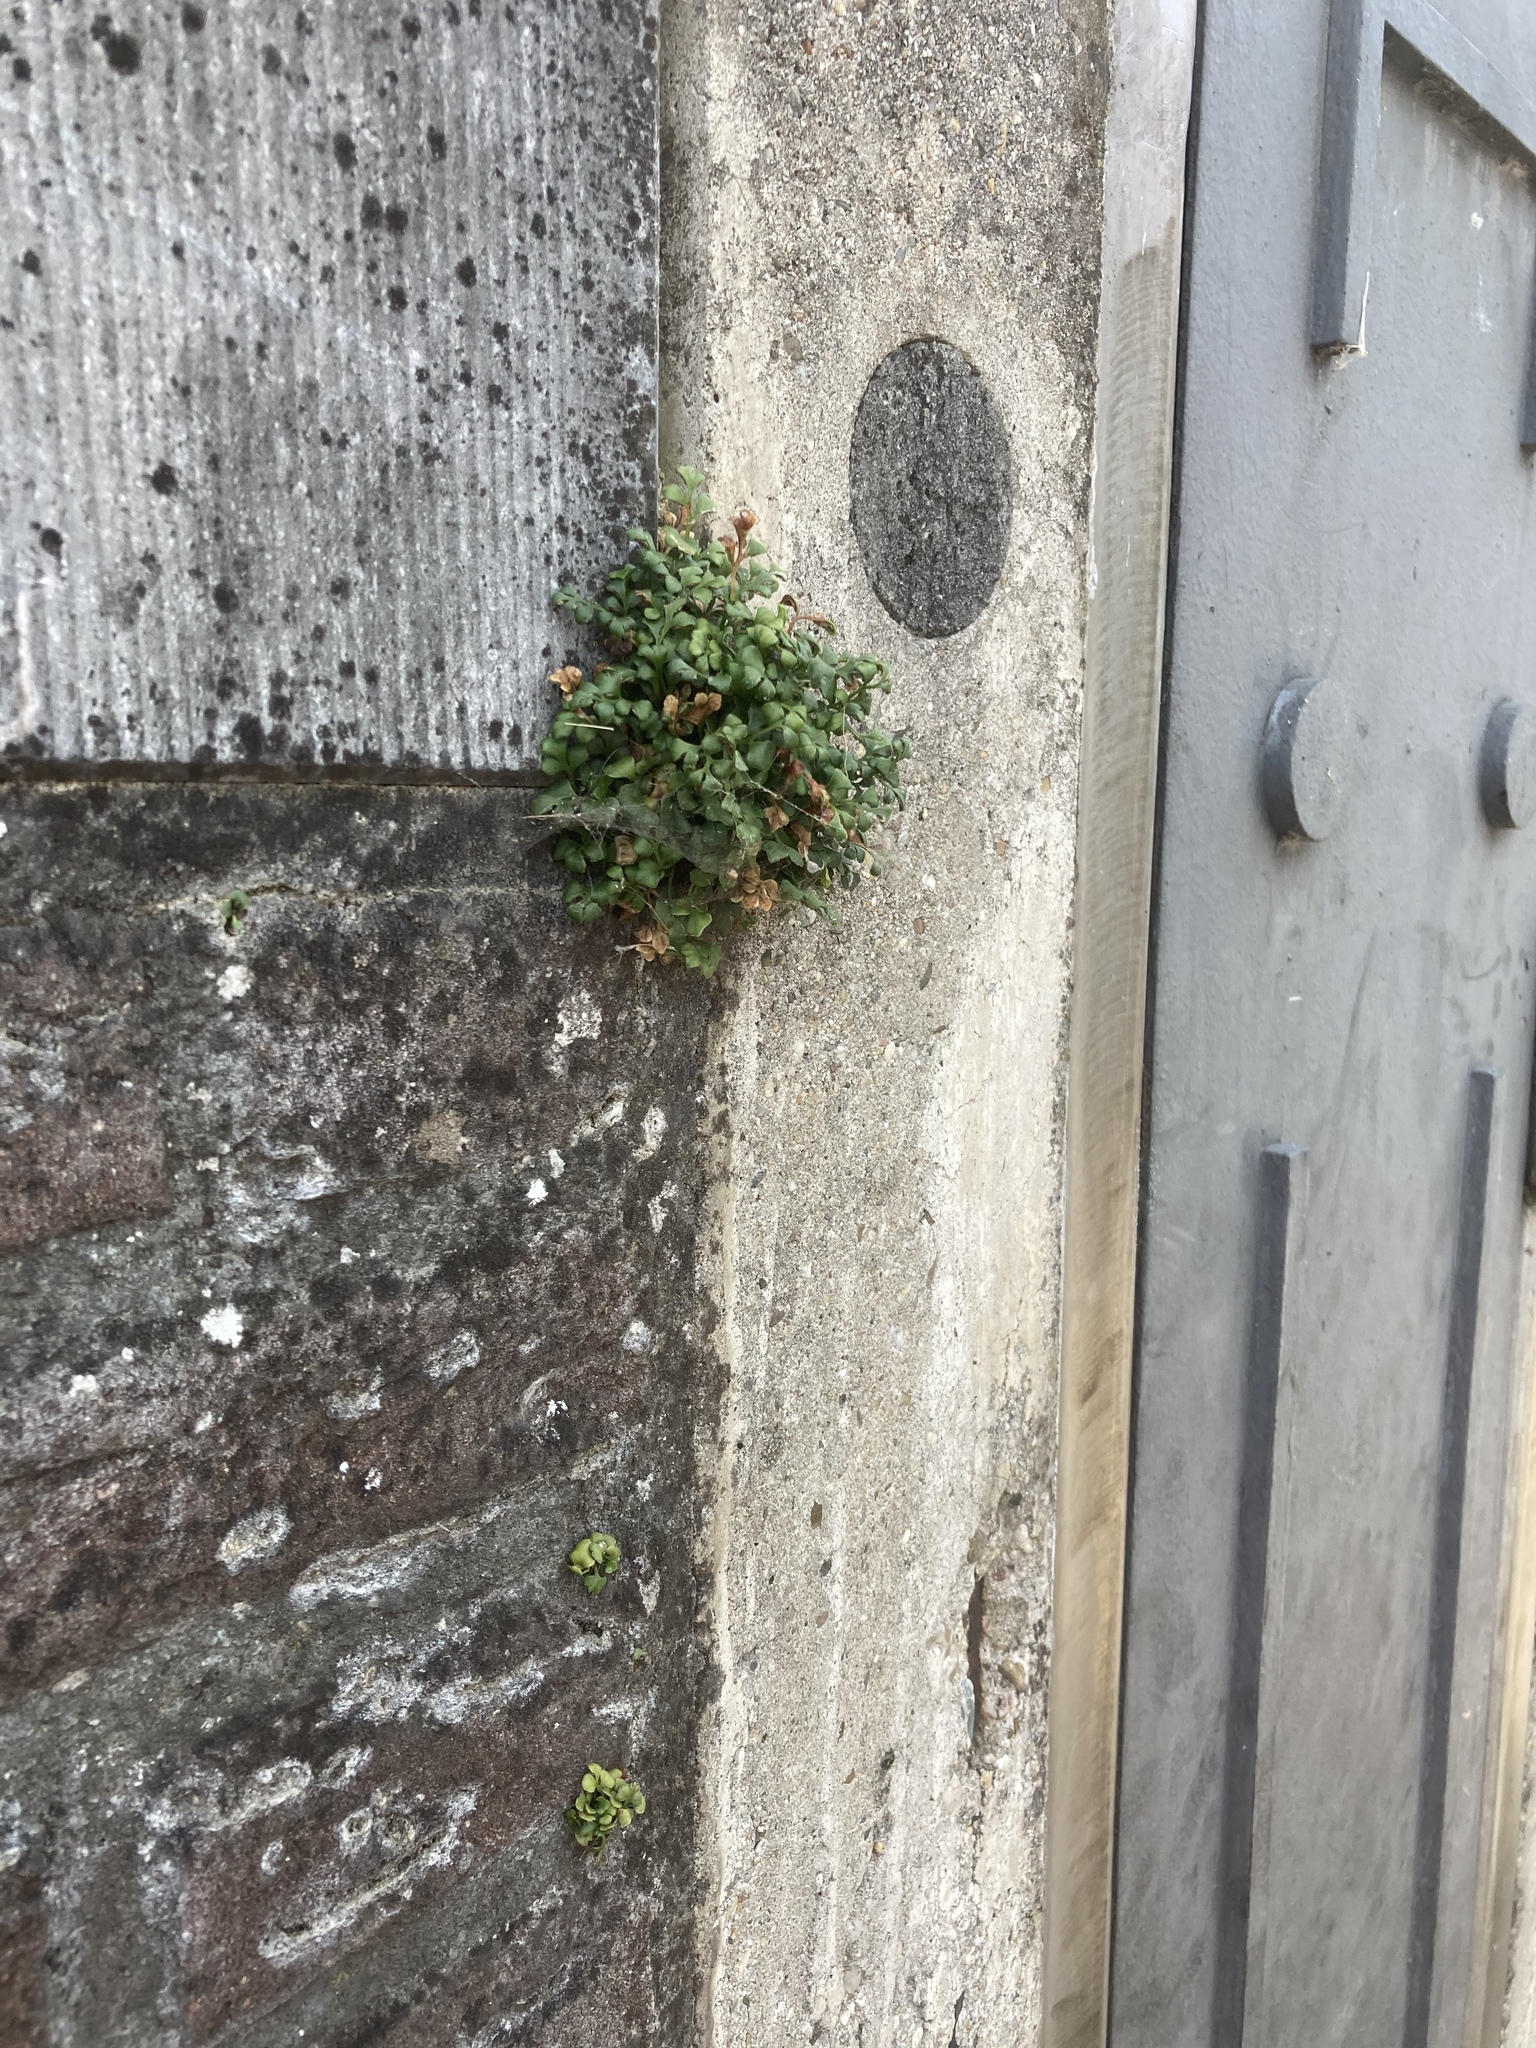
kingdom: Plantae
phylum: Tracheophyta
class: Polypodiopsida
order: Polypodiales
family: Aspleniaceae
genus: Asplenium
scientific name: Asplenium ruta-muraria
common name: Wall-rue
